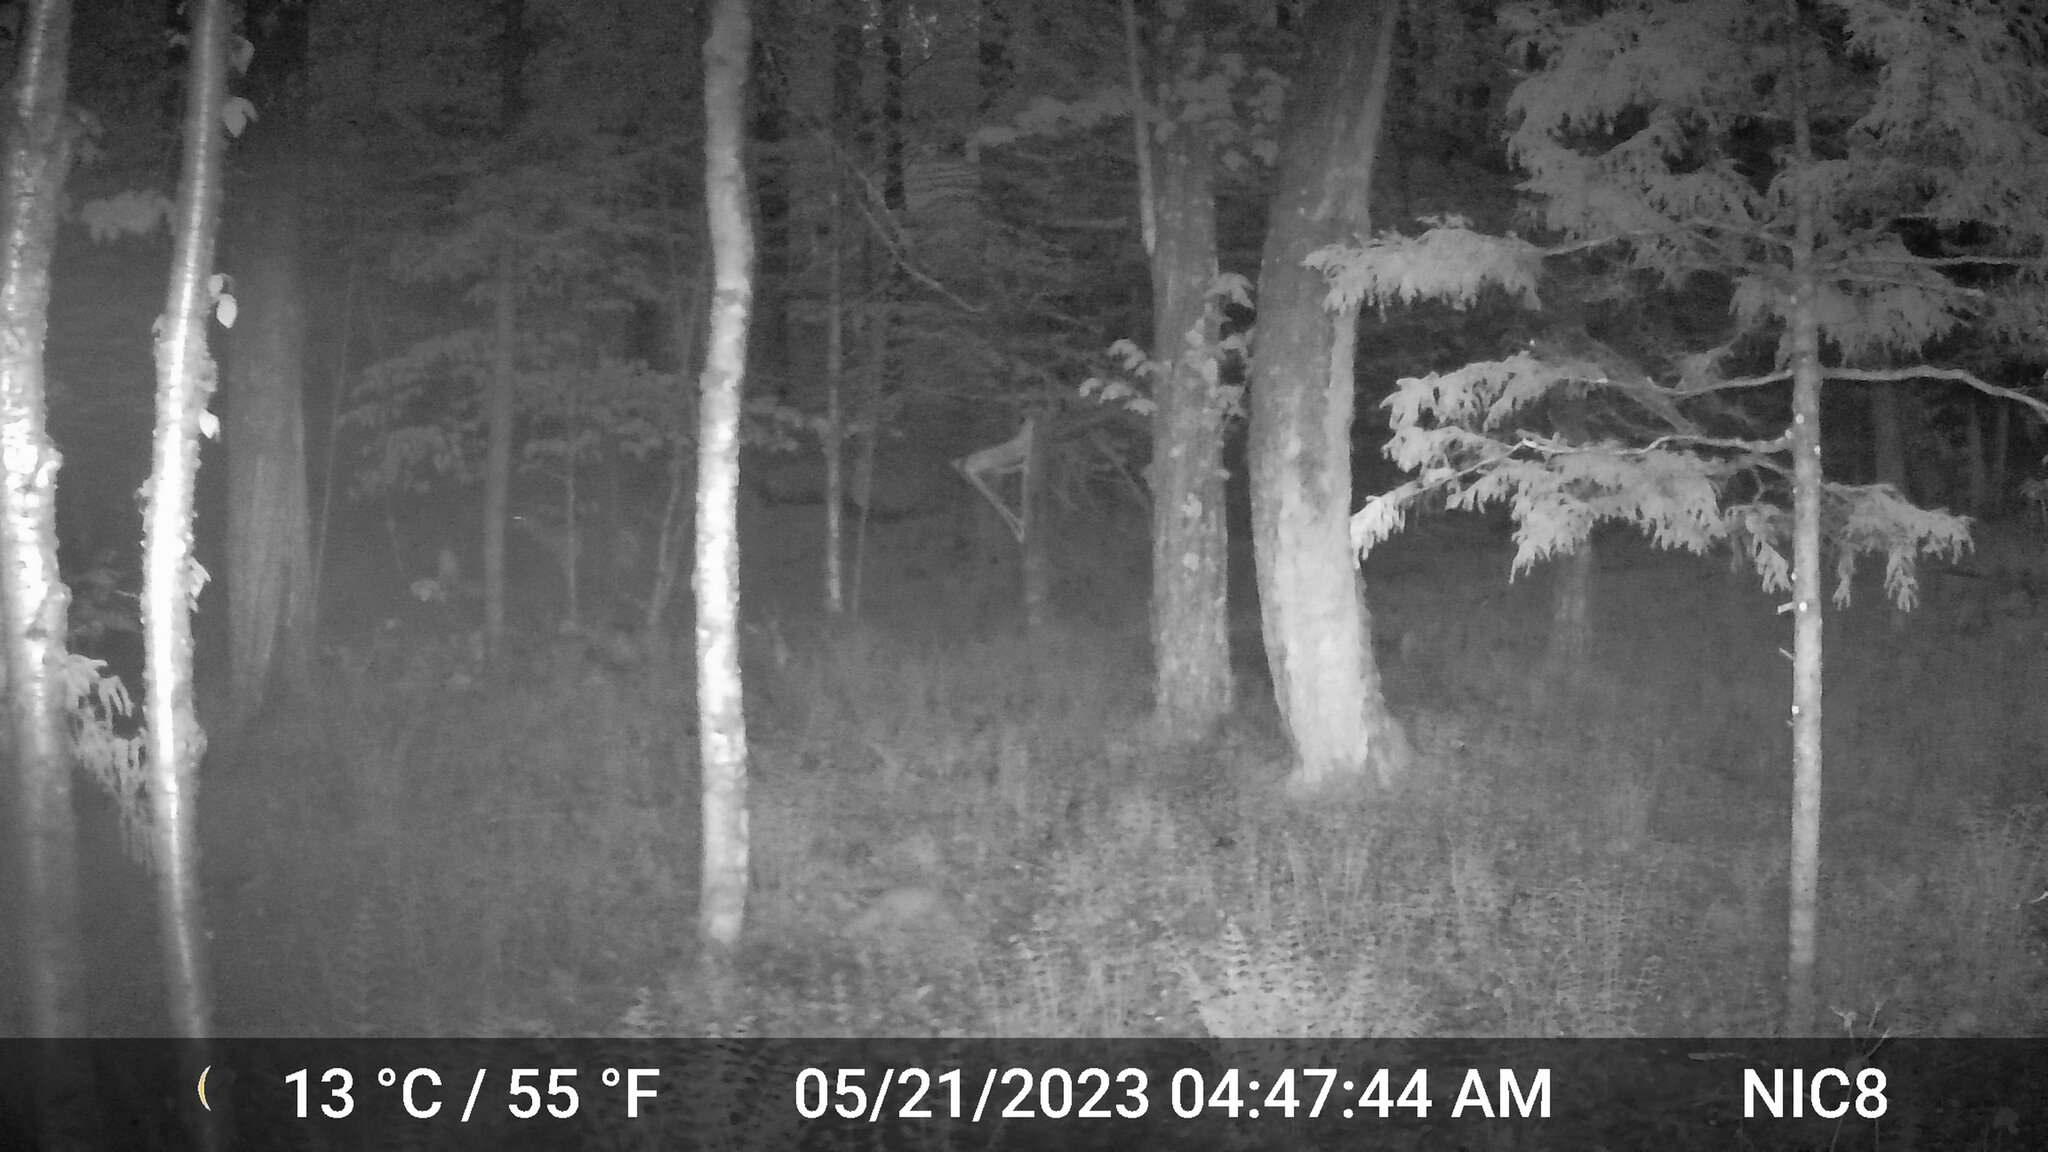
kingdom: Animalia
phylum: Chordata
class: Mammalia
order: Artiodactyla
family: Cervidae
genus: Odocoileus
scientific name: Odocoileus virginianus
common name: White-tailed deer
